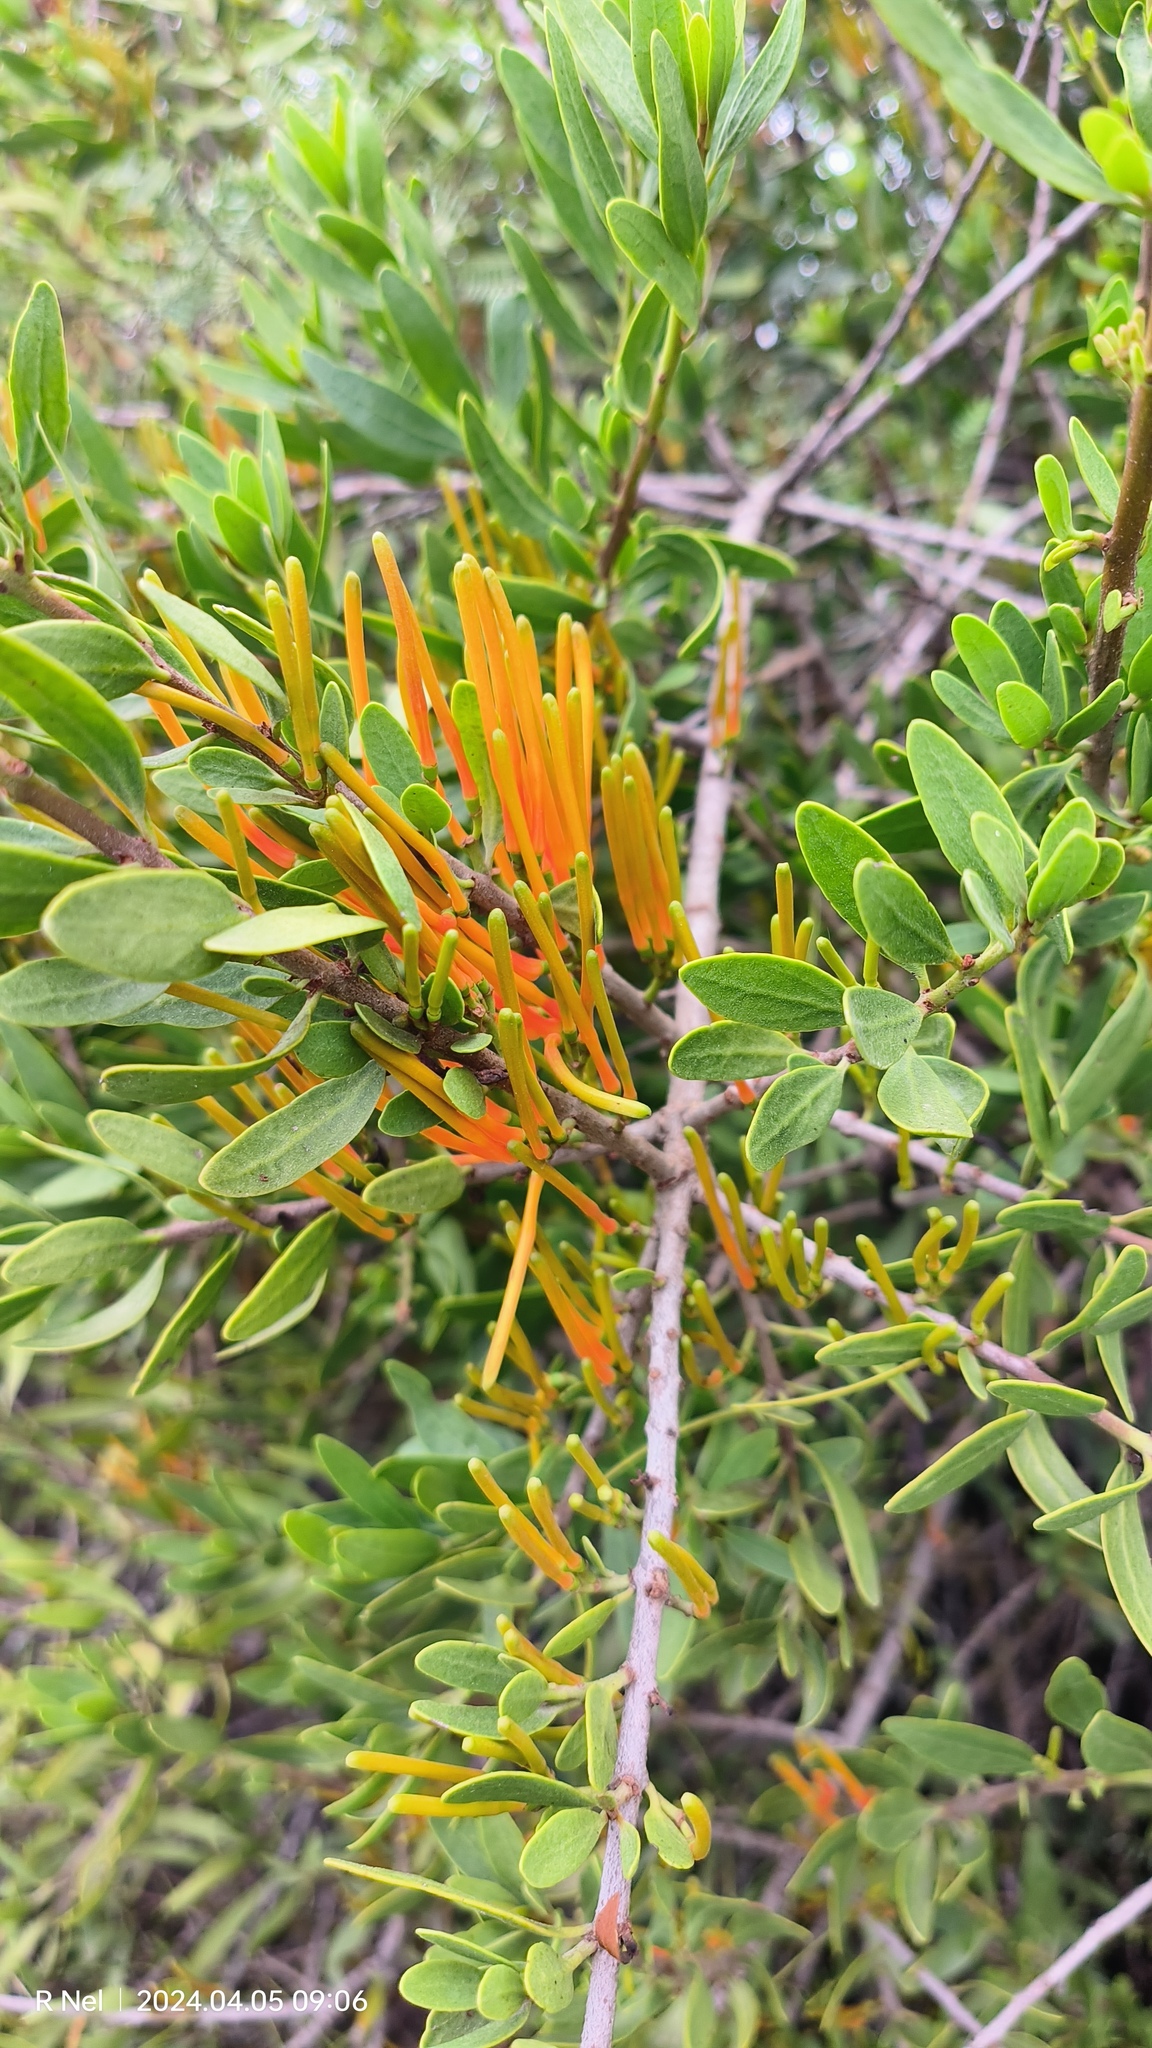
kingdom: Plantae
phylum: Tracheophyta
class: Magnoliopsida
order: Santalales
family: Loranthaceae
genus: Moquiniella
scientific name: Moquiniella rubra
